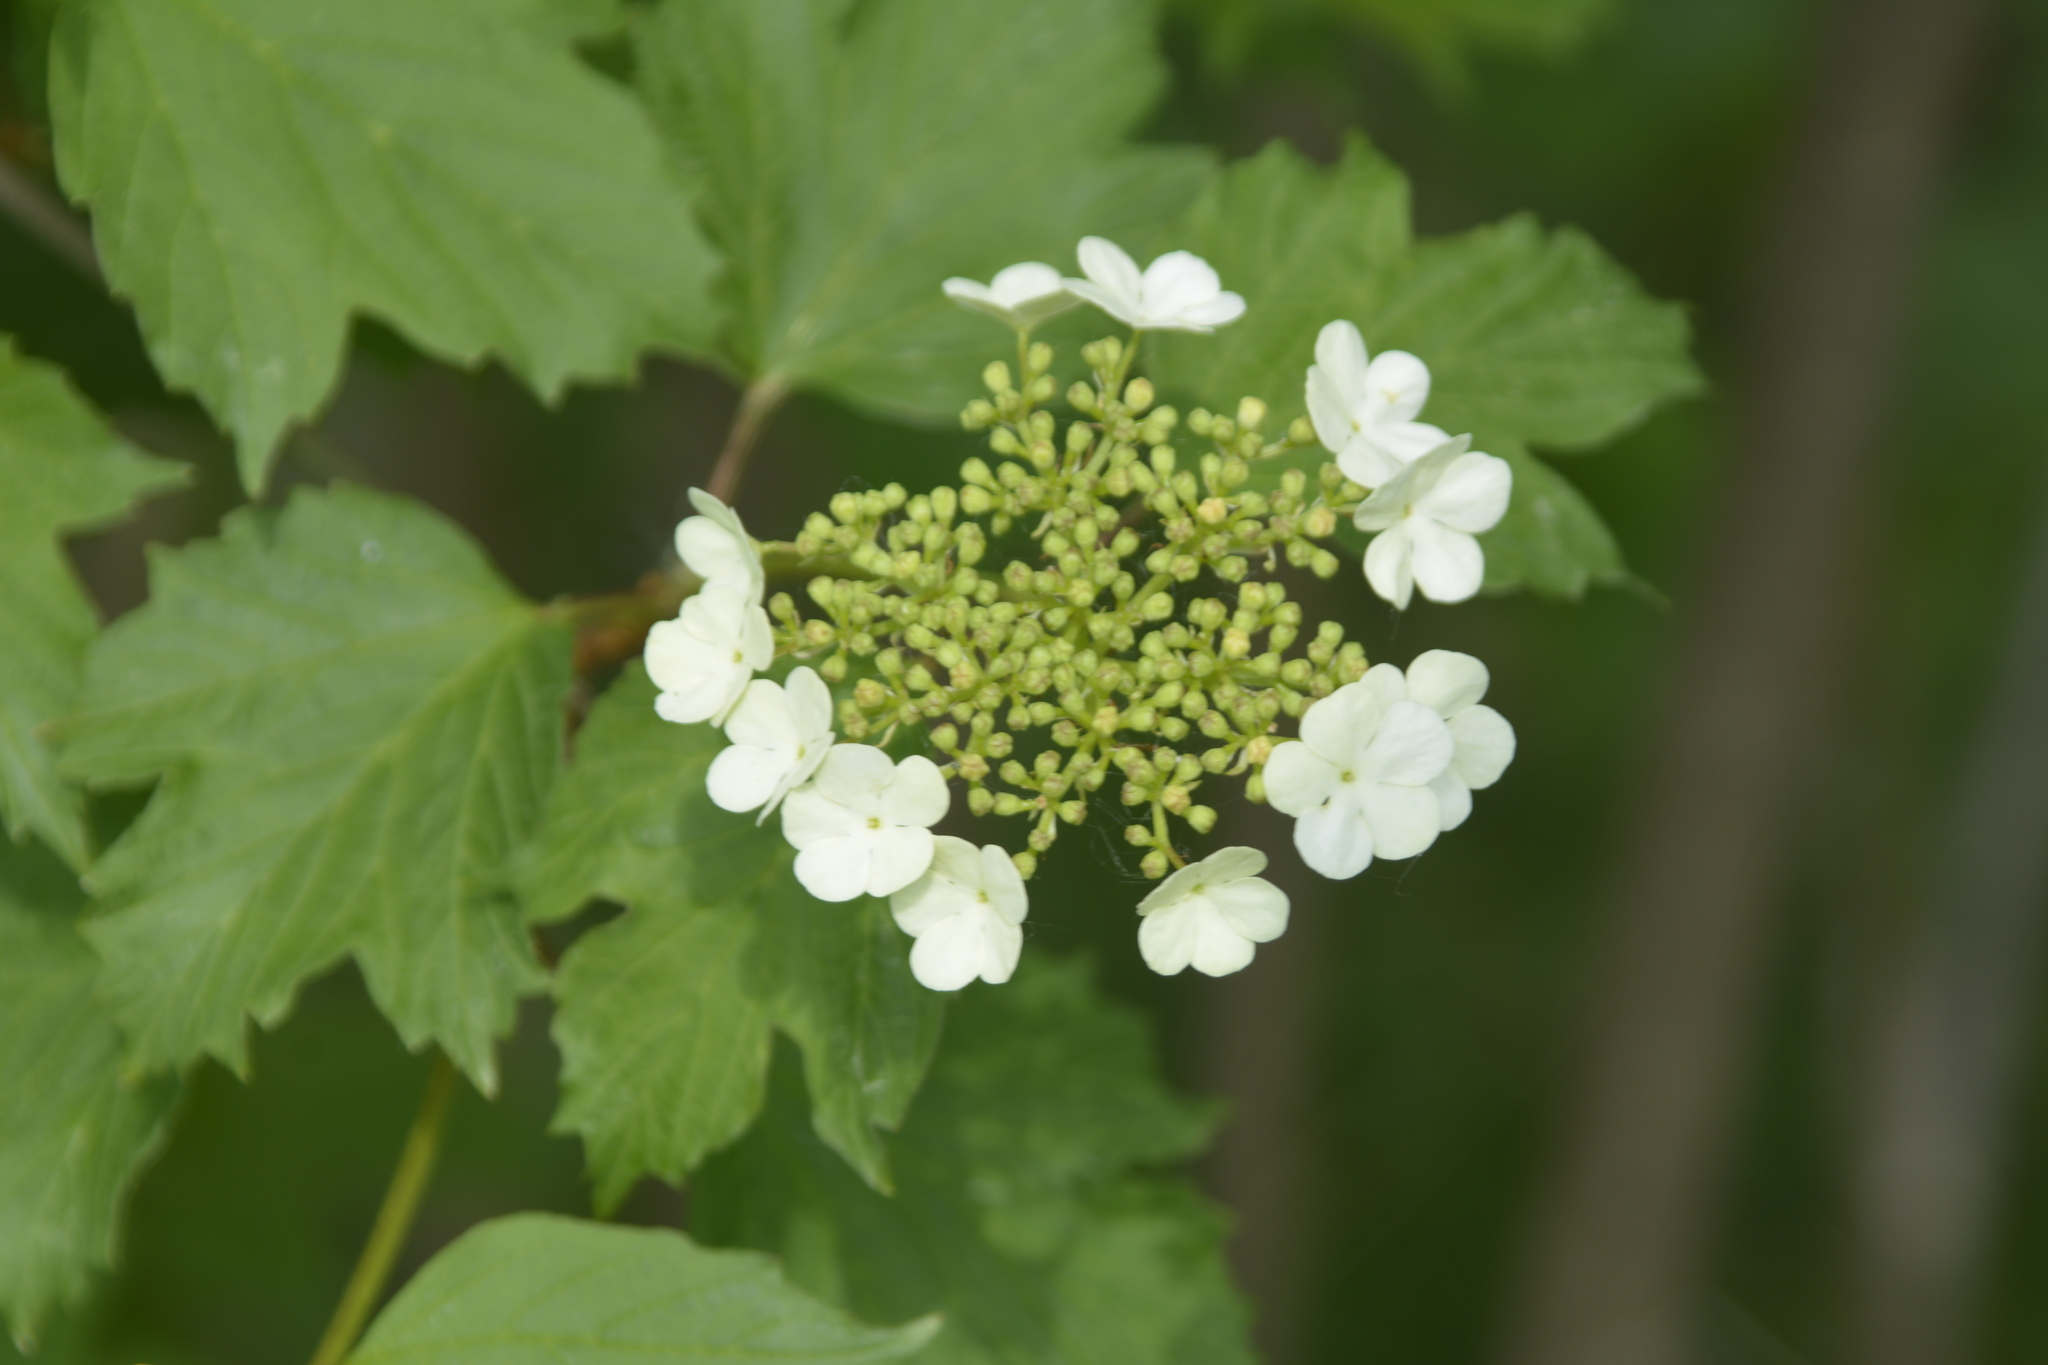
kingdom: Plantae
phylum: Tracheophyta
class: Magnoliopsida
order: Dipsacales
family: Viburnaceae
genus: Viburnum
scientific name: Viburnum opulus
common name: Guelder-rose
